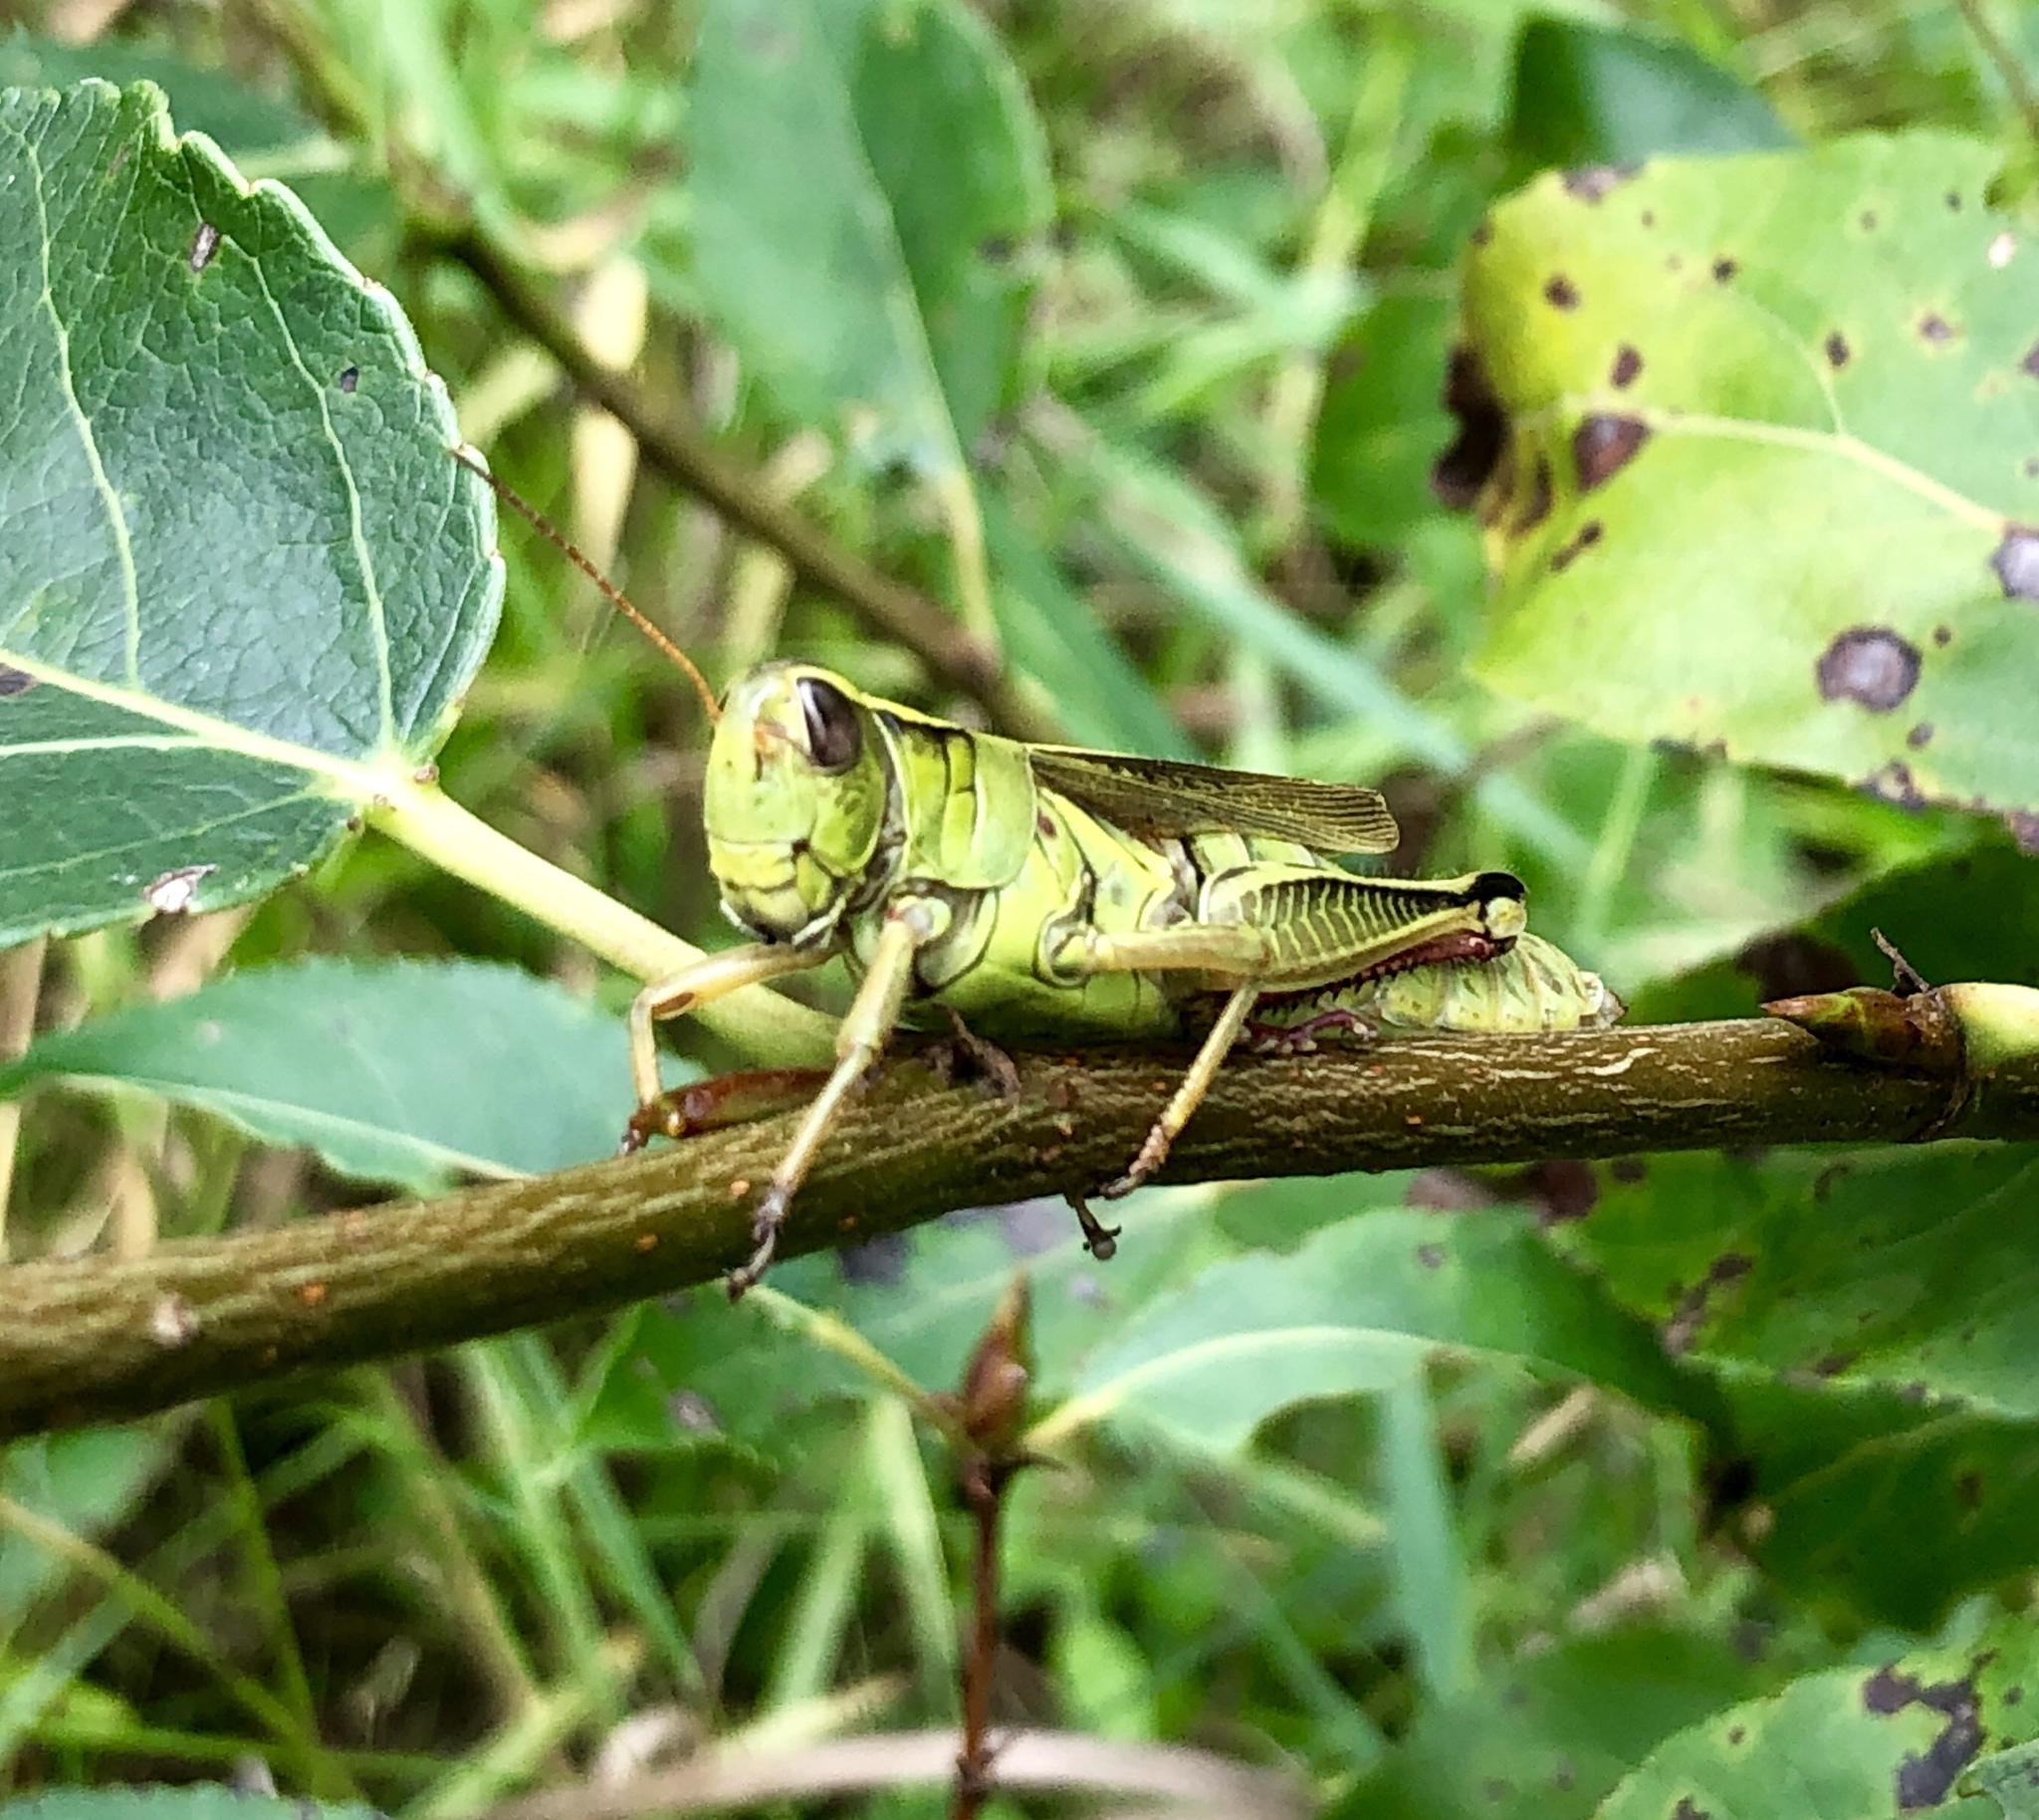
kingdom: Animalia
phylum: Arthropoda
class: Insecta
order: Orthoptera
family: Acrididae
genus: Melanoplus
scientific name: Melanoplus bivittatus
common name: Two-striped grasshopper
